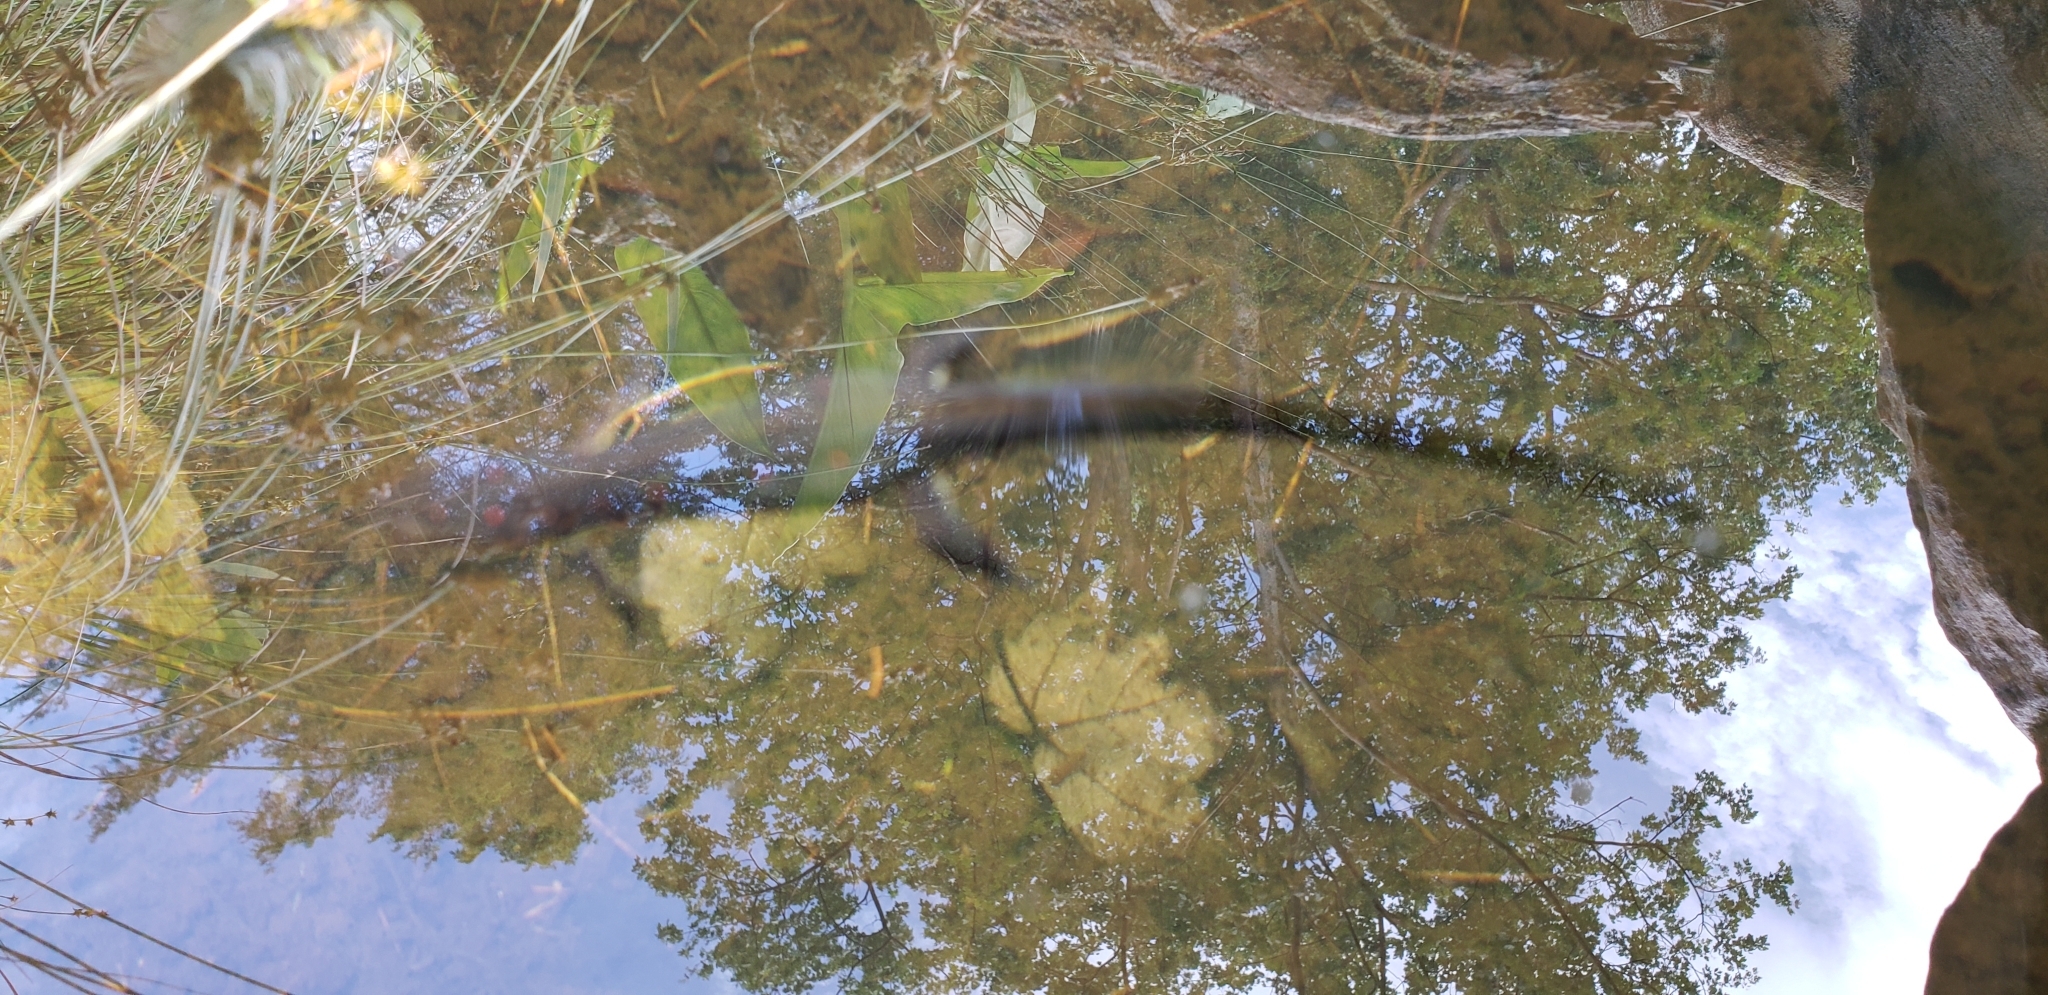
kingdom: Animalia
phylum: Chordata
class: Amphibia
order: Caudata
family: Salamandridae
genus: Notophthalmus
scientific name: Notophthalmus viridescens
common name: Eastern newt
